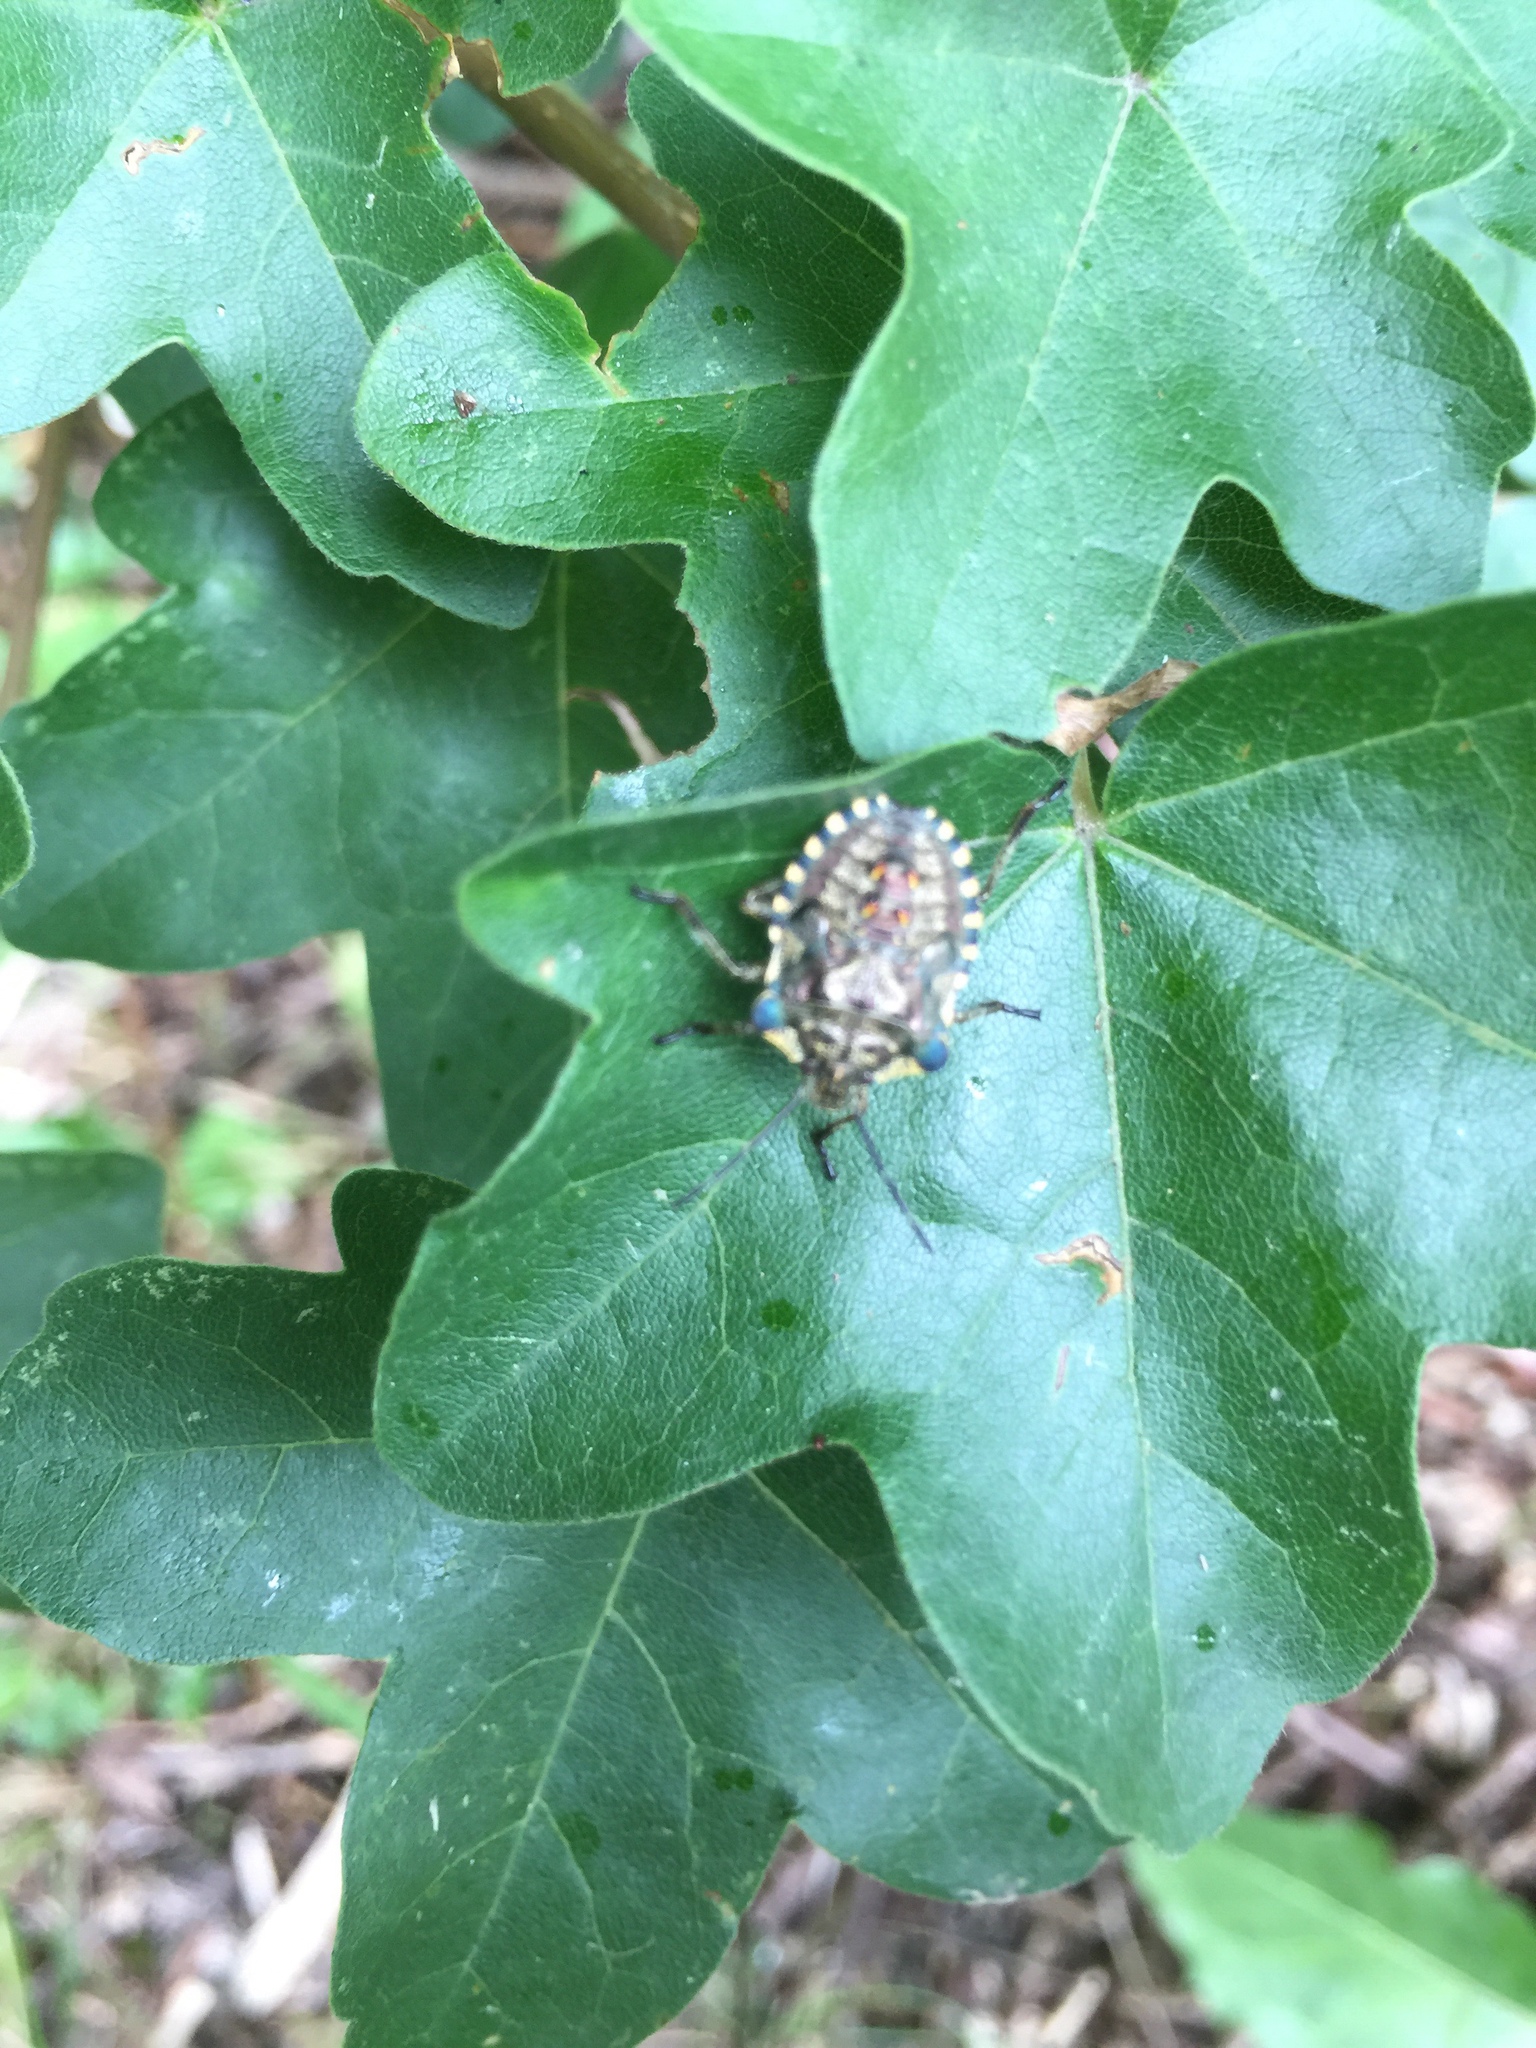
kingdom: Animalia
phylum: Arthropoda
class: Insecta
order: Hemiptera
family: Pentatomidae
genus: Pentatoma
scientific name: Pentatoma rufipes
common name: Forest bug
